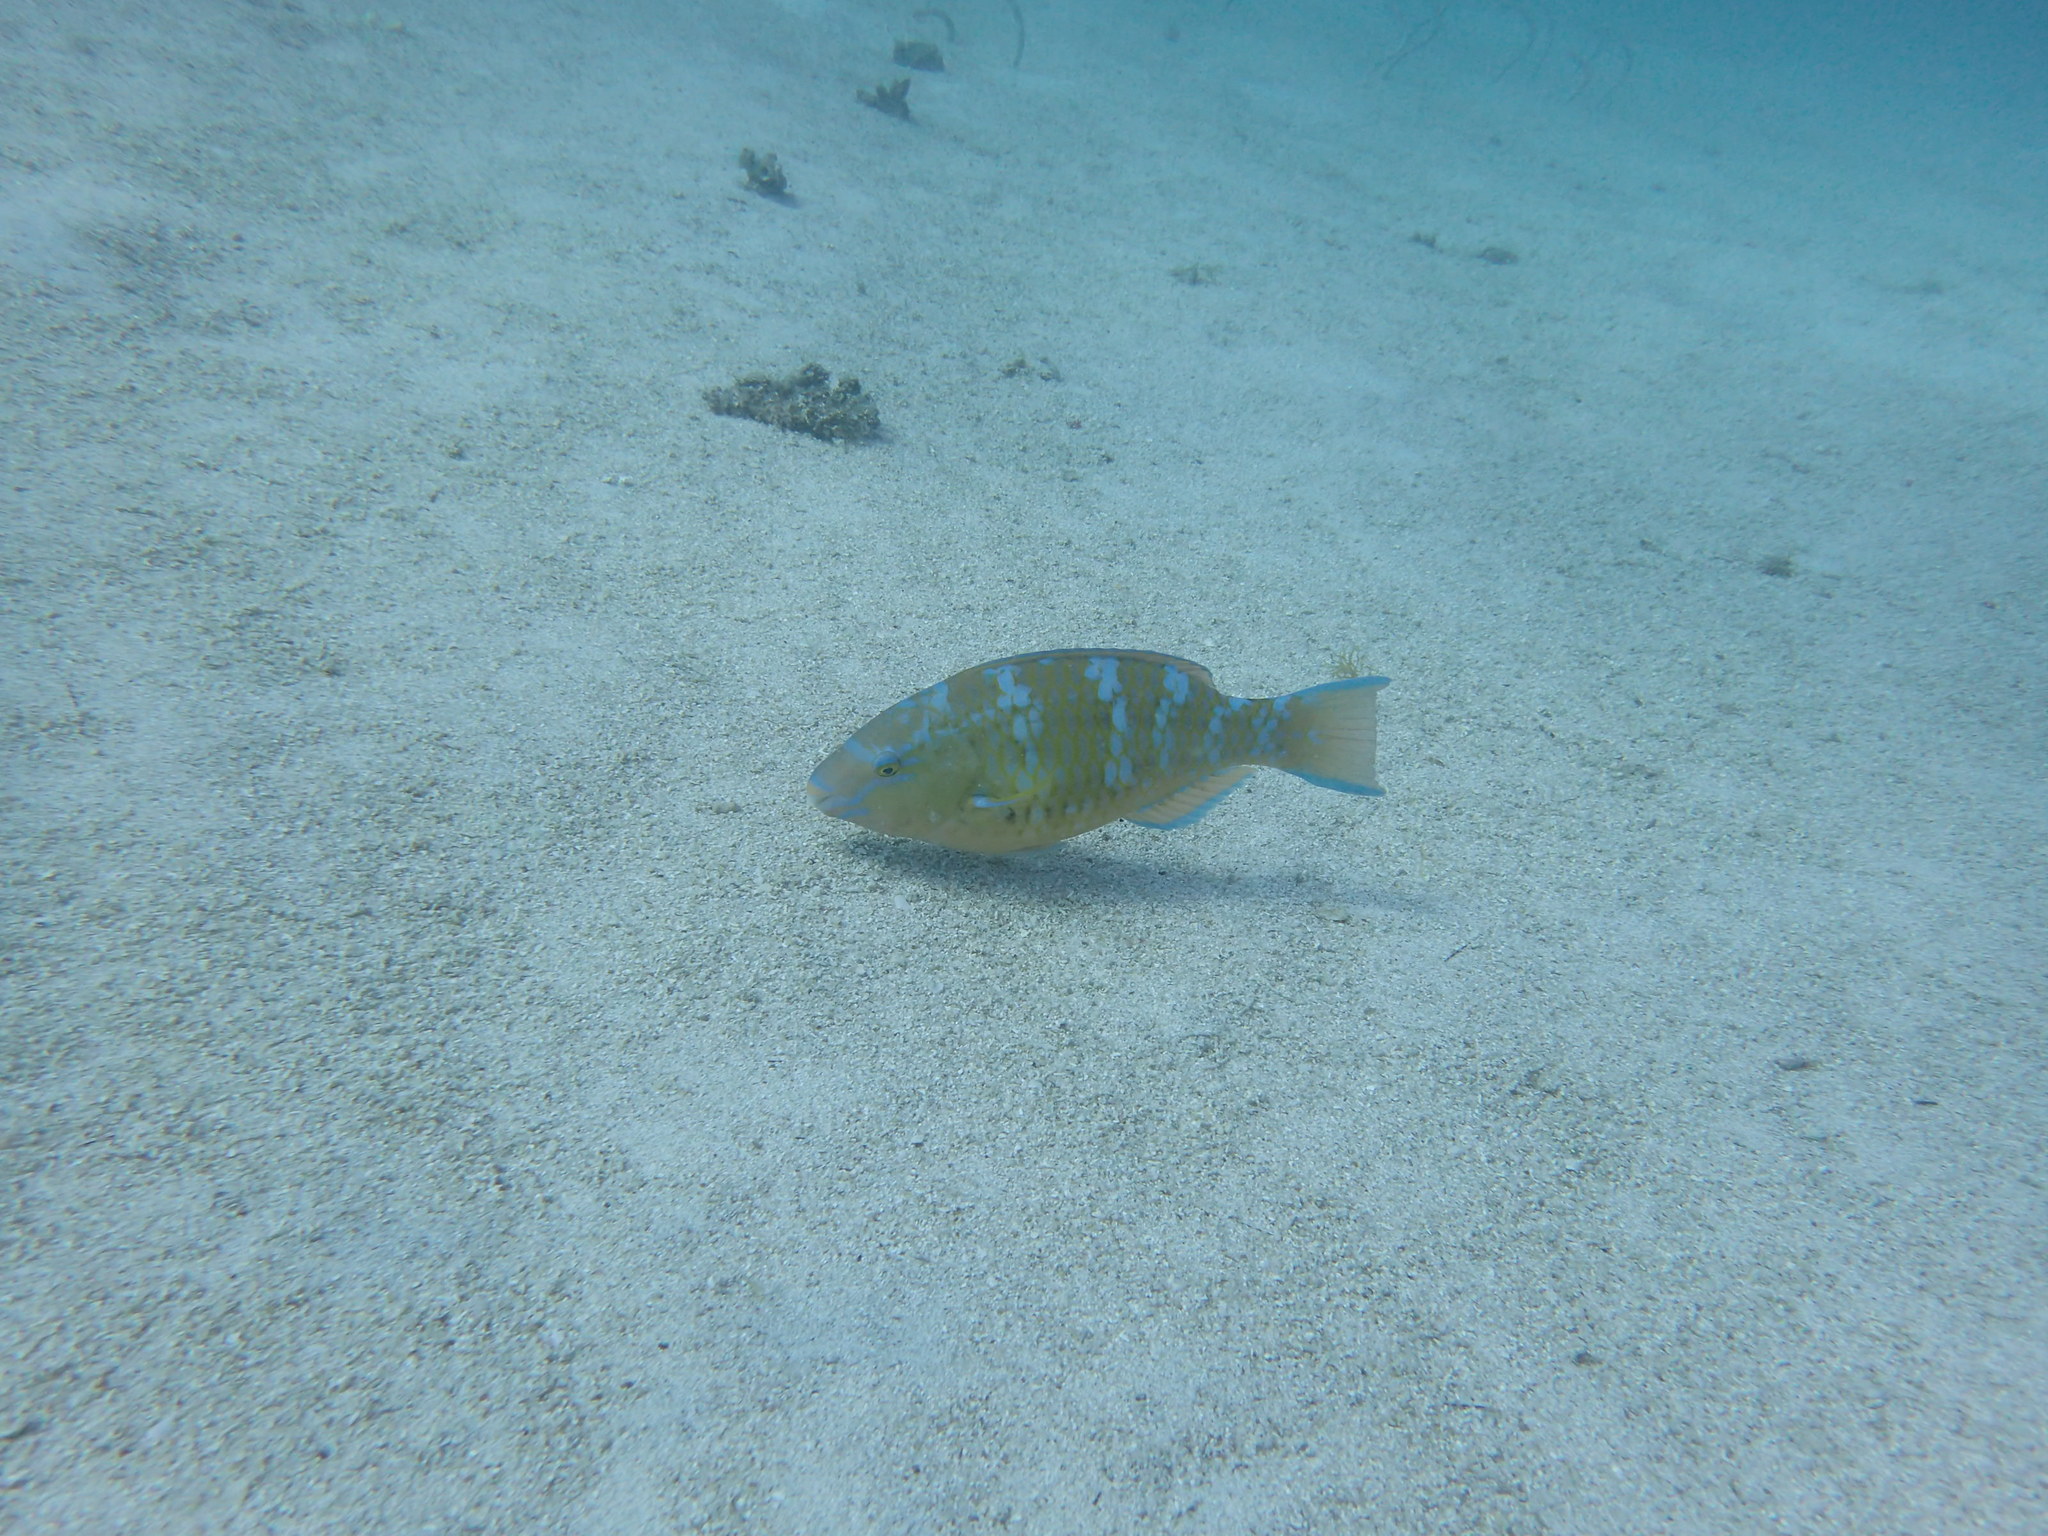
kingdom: Animalia
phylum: Chordata
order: Perciformes
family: Scaridae
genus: Scarus
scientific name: Scarus ghobban
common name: Blue-barred parrotfish
